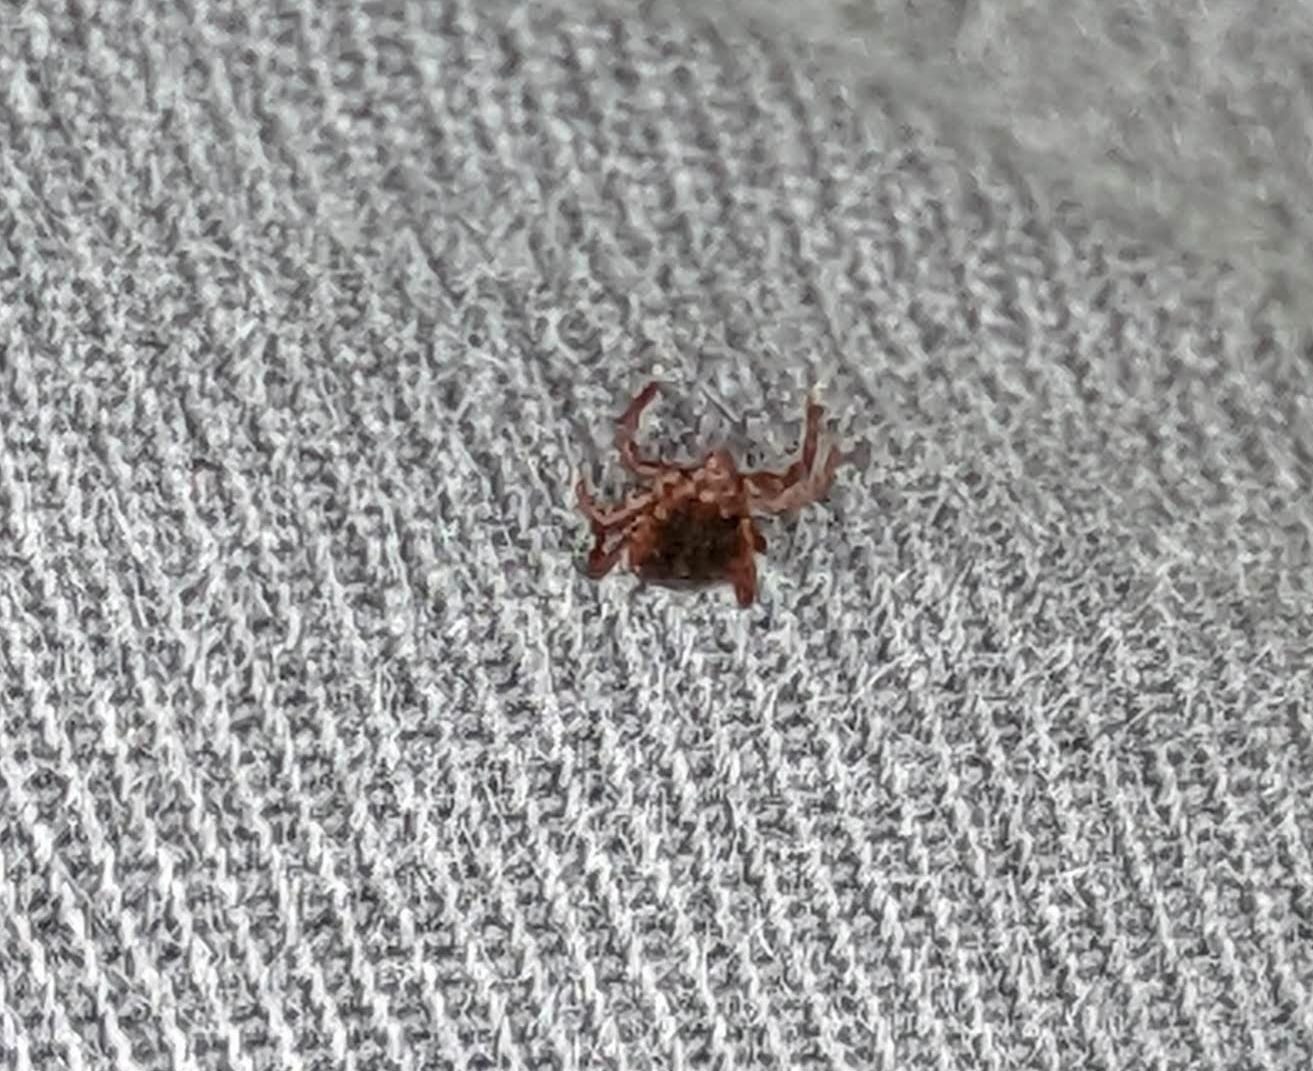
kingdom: Animalia
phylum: Arthropoda
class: Arachnida
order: Ixodida
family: Ixodidae
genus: Rhipicephalus
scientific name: Rhipicephalus sanguineus
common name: Brown dog tick
